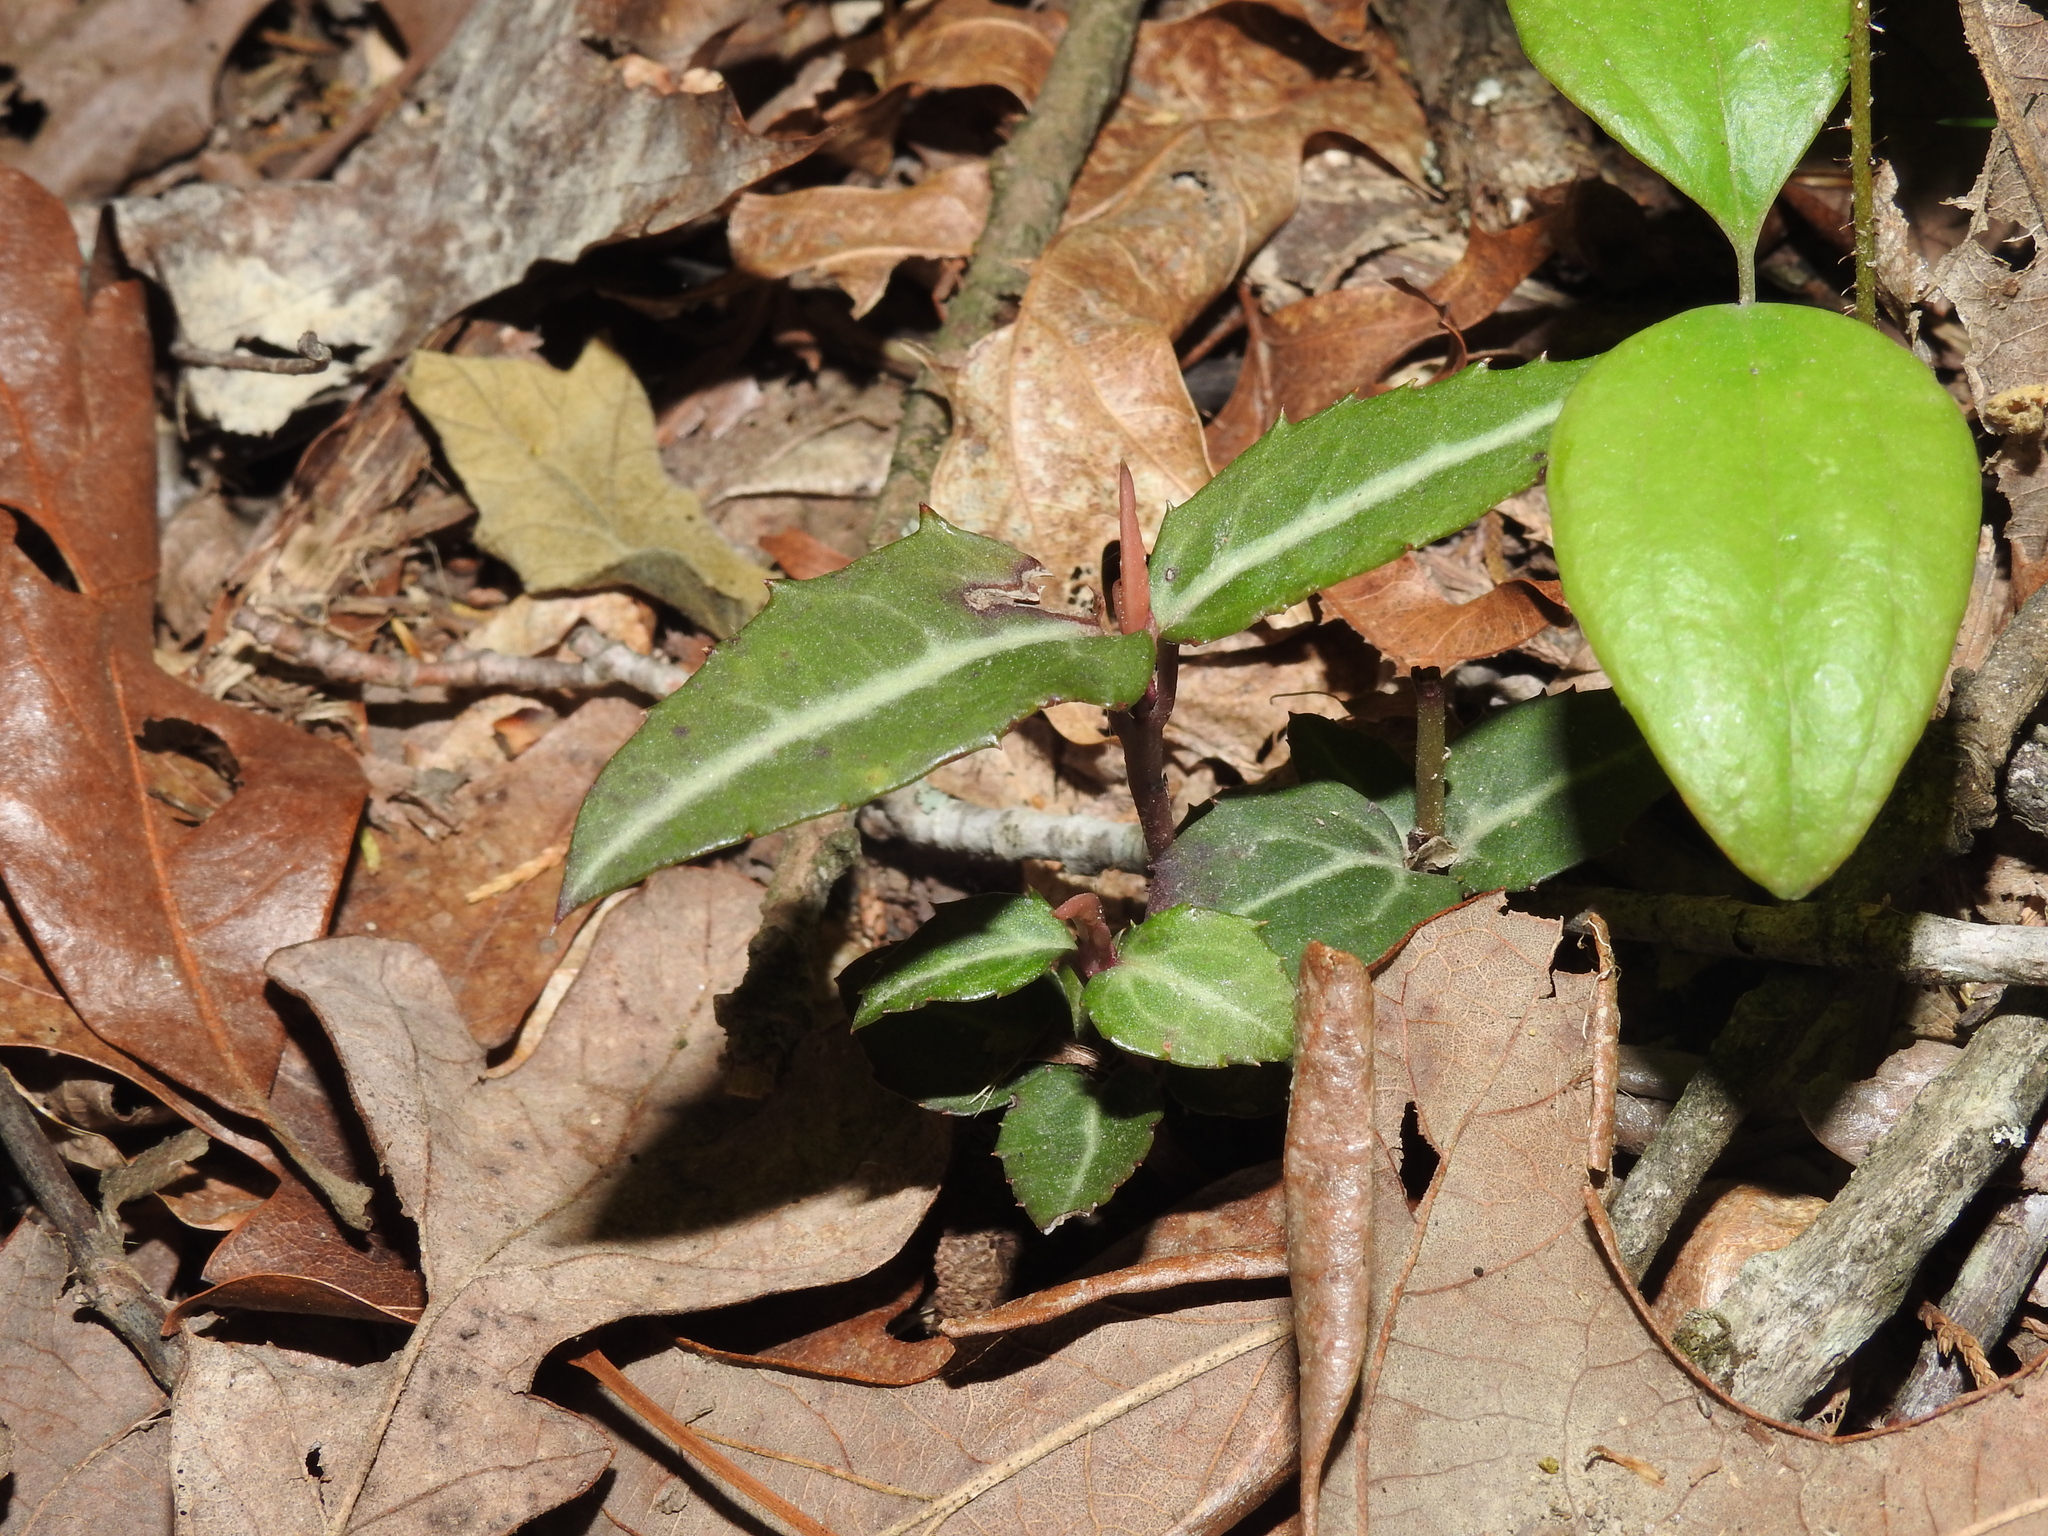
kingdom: Plantae
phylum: Tracheophyta
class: Magnoliopsida
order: Ericales
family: Ericaceae
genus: Chimaphila
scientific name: Chimaphila maculata
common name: Spotted pipsissewa
